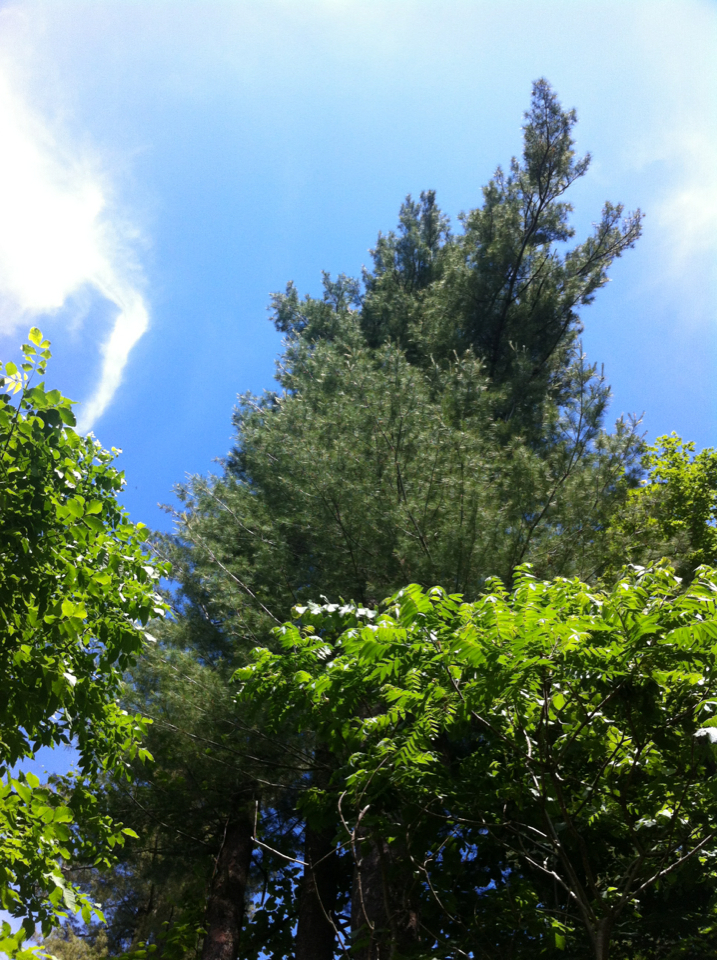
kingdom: Plantae
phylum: Tracheophyta
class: Pinopsida
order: Pinales
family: Pinaceae
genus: Pinus
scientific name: Pinus strobus
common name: Weymouth pine
